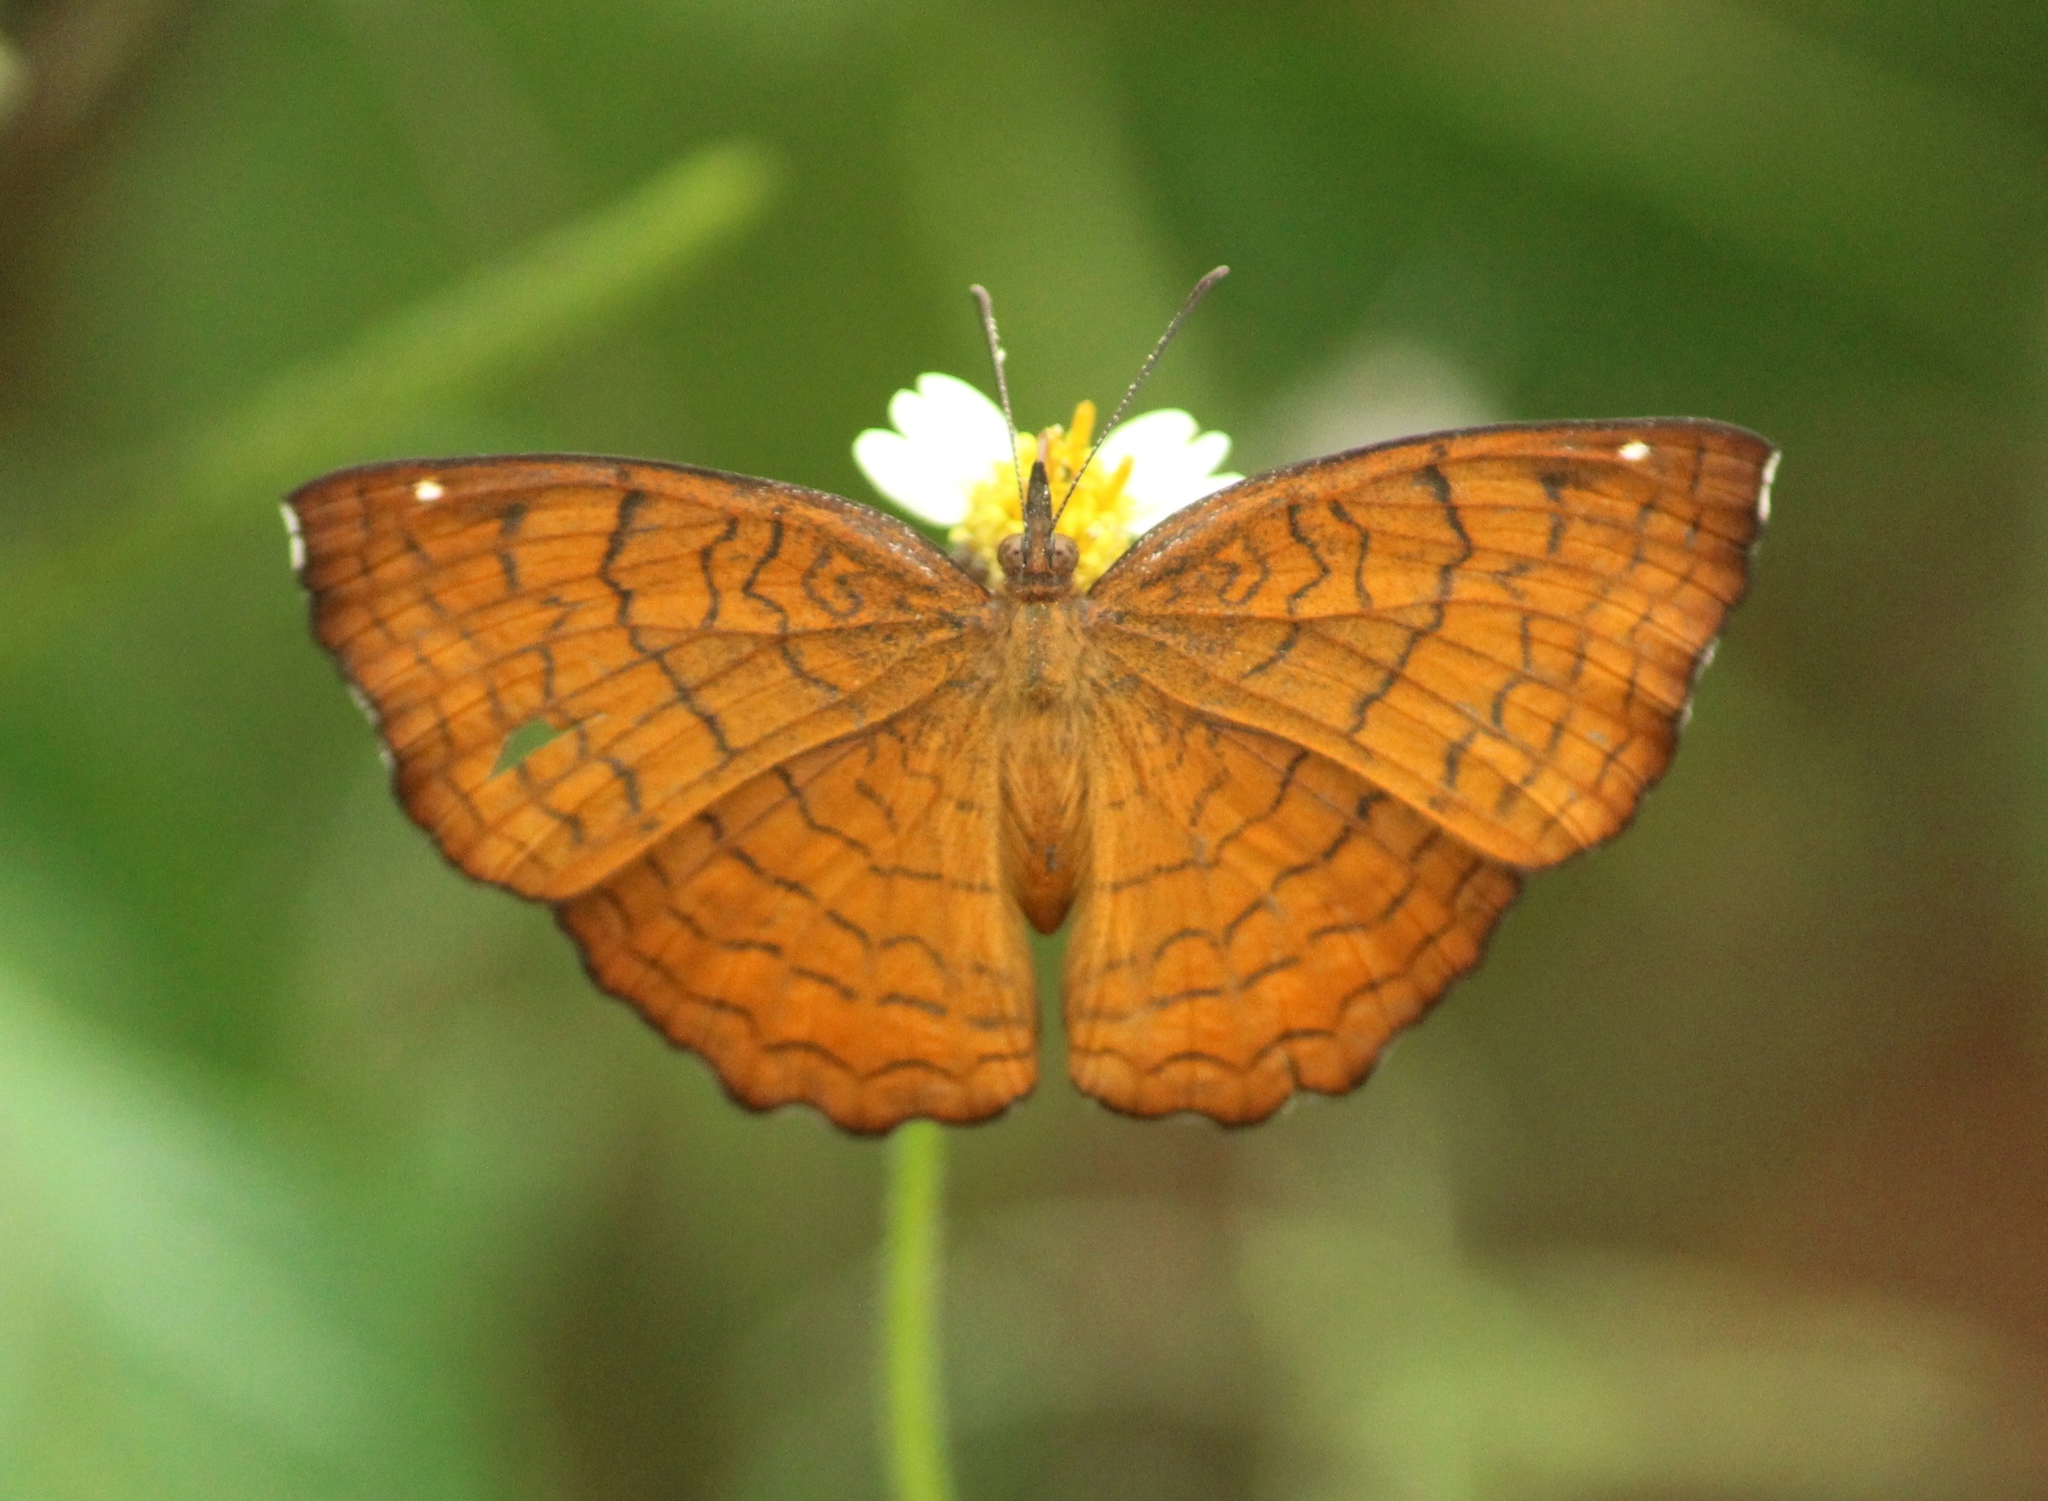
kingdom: Animalia
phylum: Arthropoda
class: Insecta
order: Lepidoptera
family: Nymphalidae
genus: Ariadne
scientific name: Ariadne ariadne
